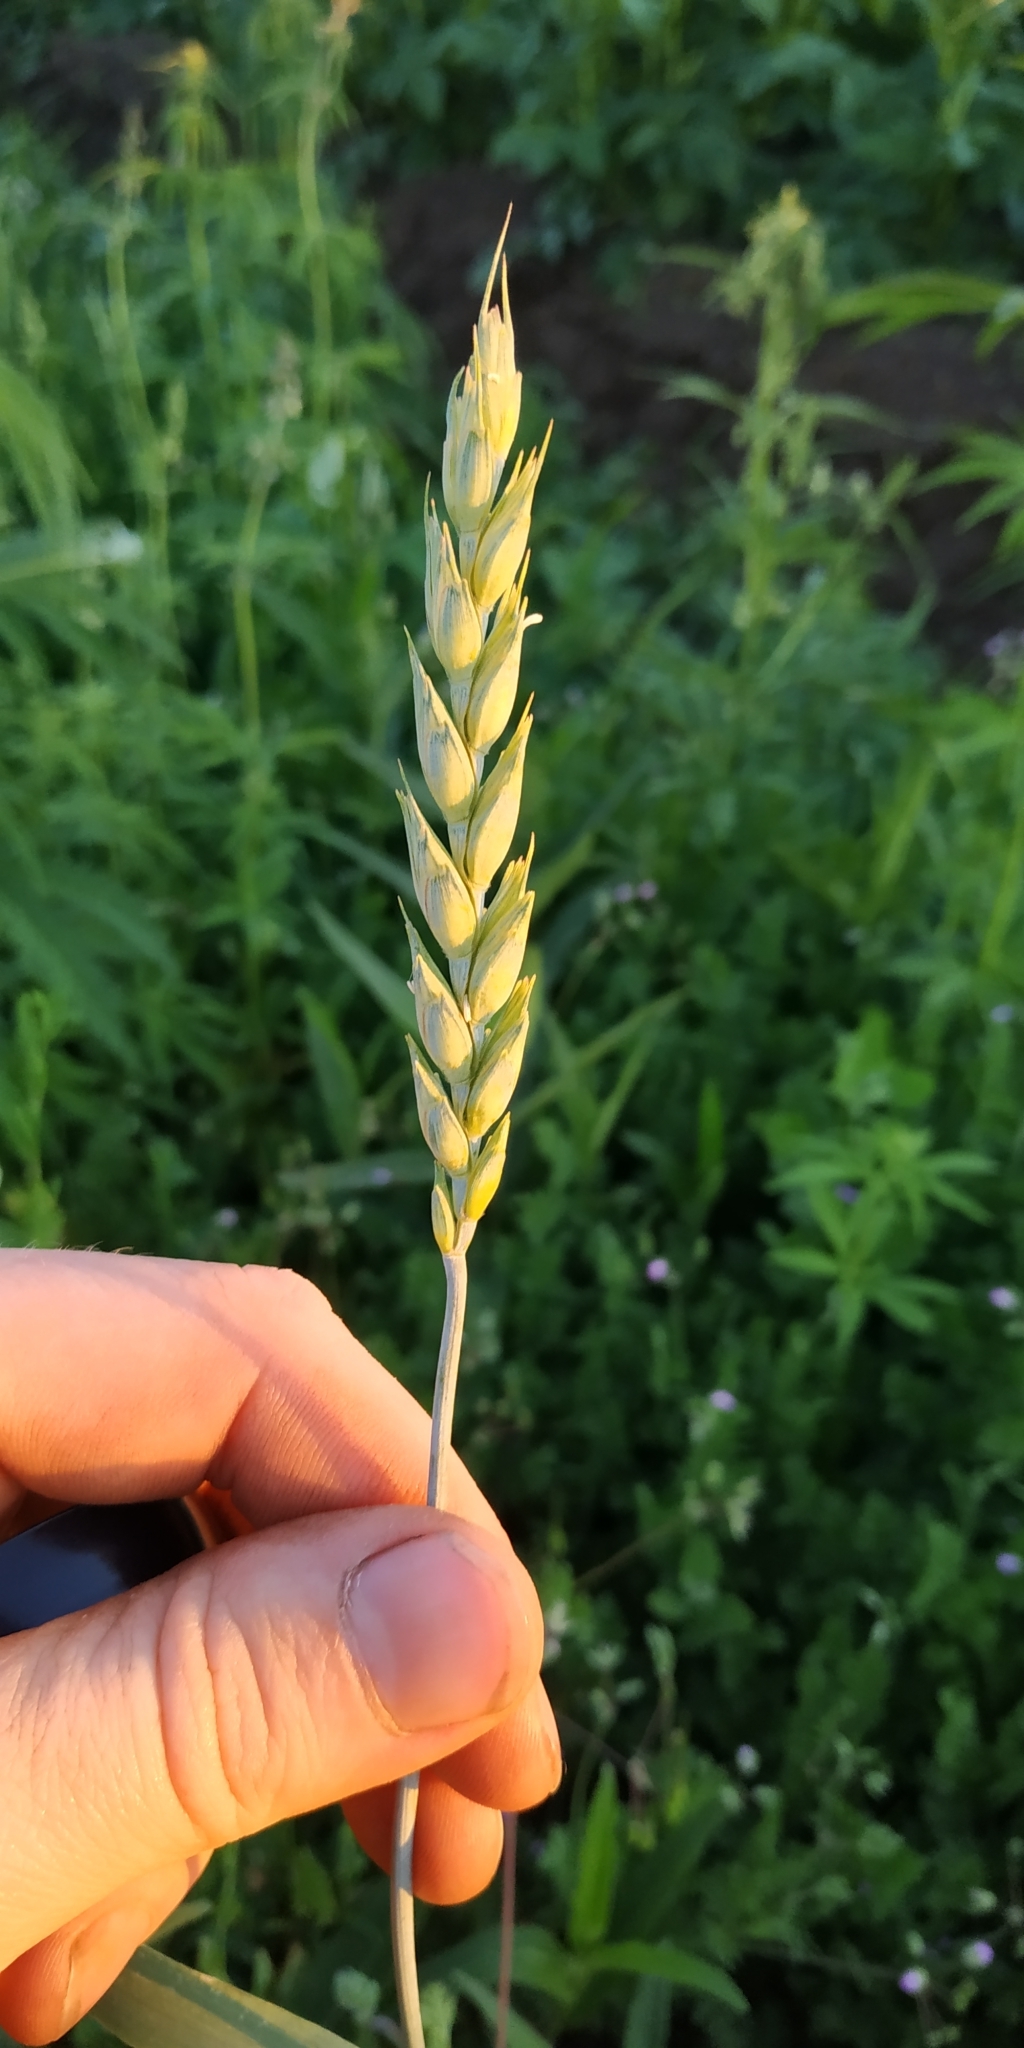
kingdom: Plantae
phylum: Tracheophyta
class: Liliopsida
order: Poales
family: Poaceae
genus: Triticum
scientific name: Triticum aestivum
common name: Common wheat
